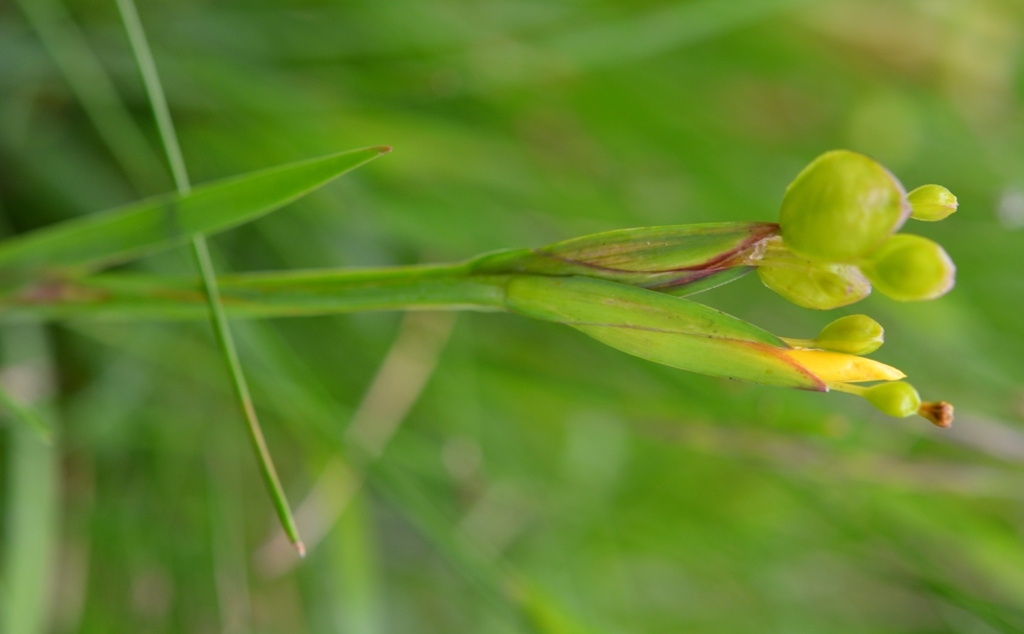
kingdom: Plantae
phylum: Tracheophyta
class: Liliopsida
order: Asparagales
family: Iridaceae
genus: Sisyrinchium
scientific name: Sisyrinchium angustissimum
